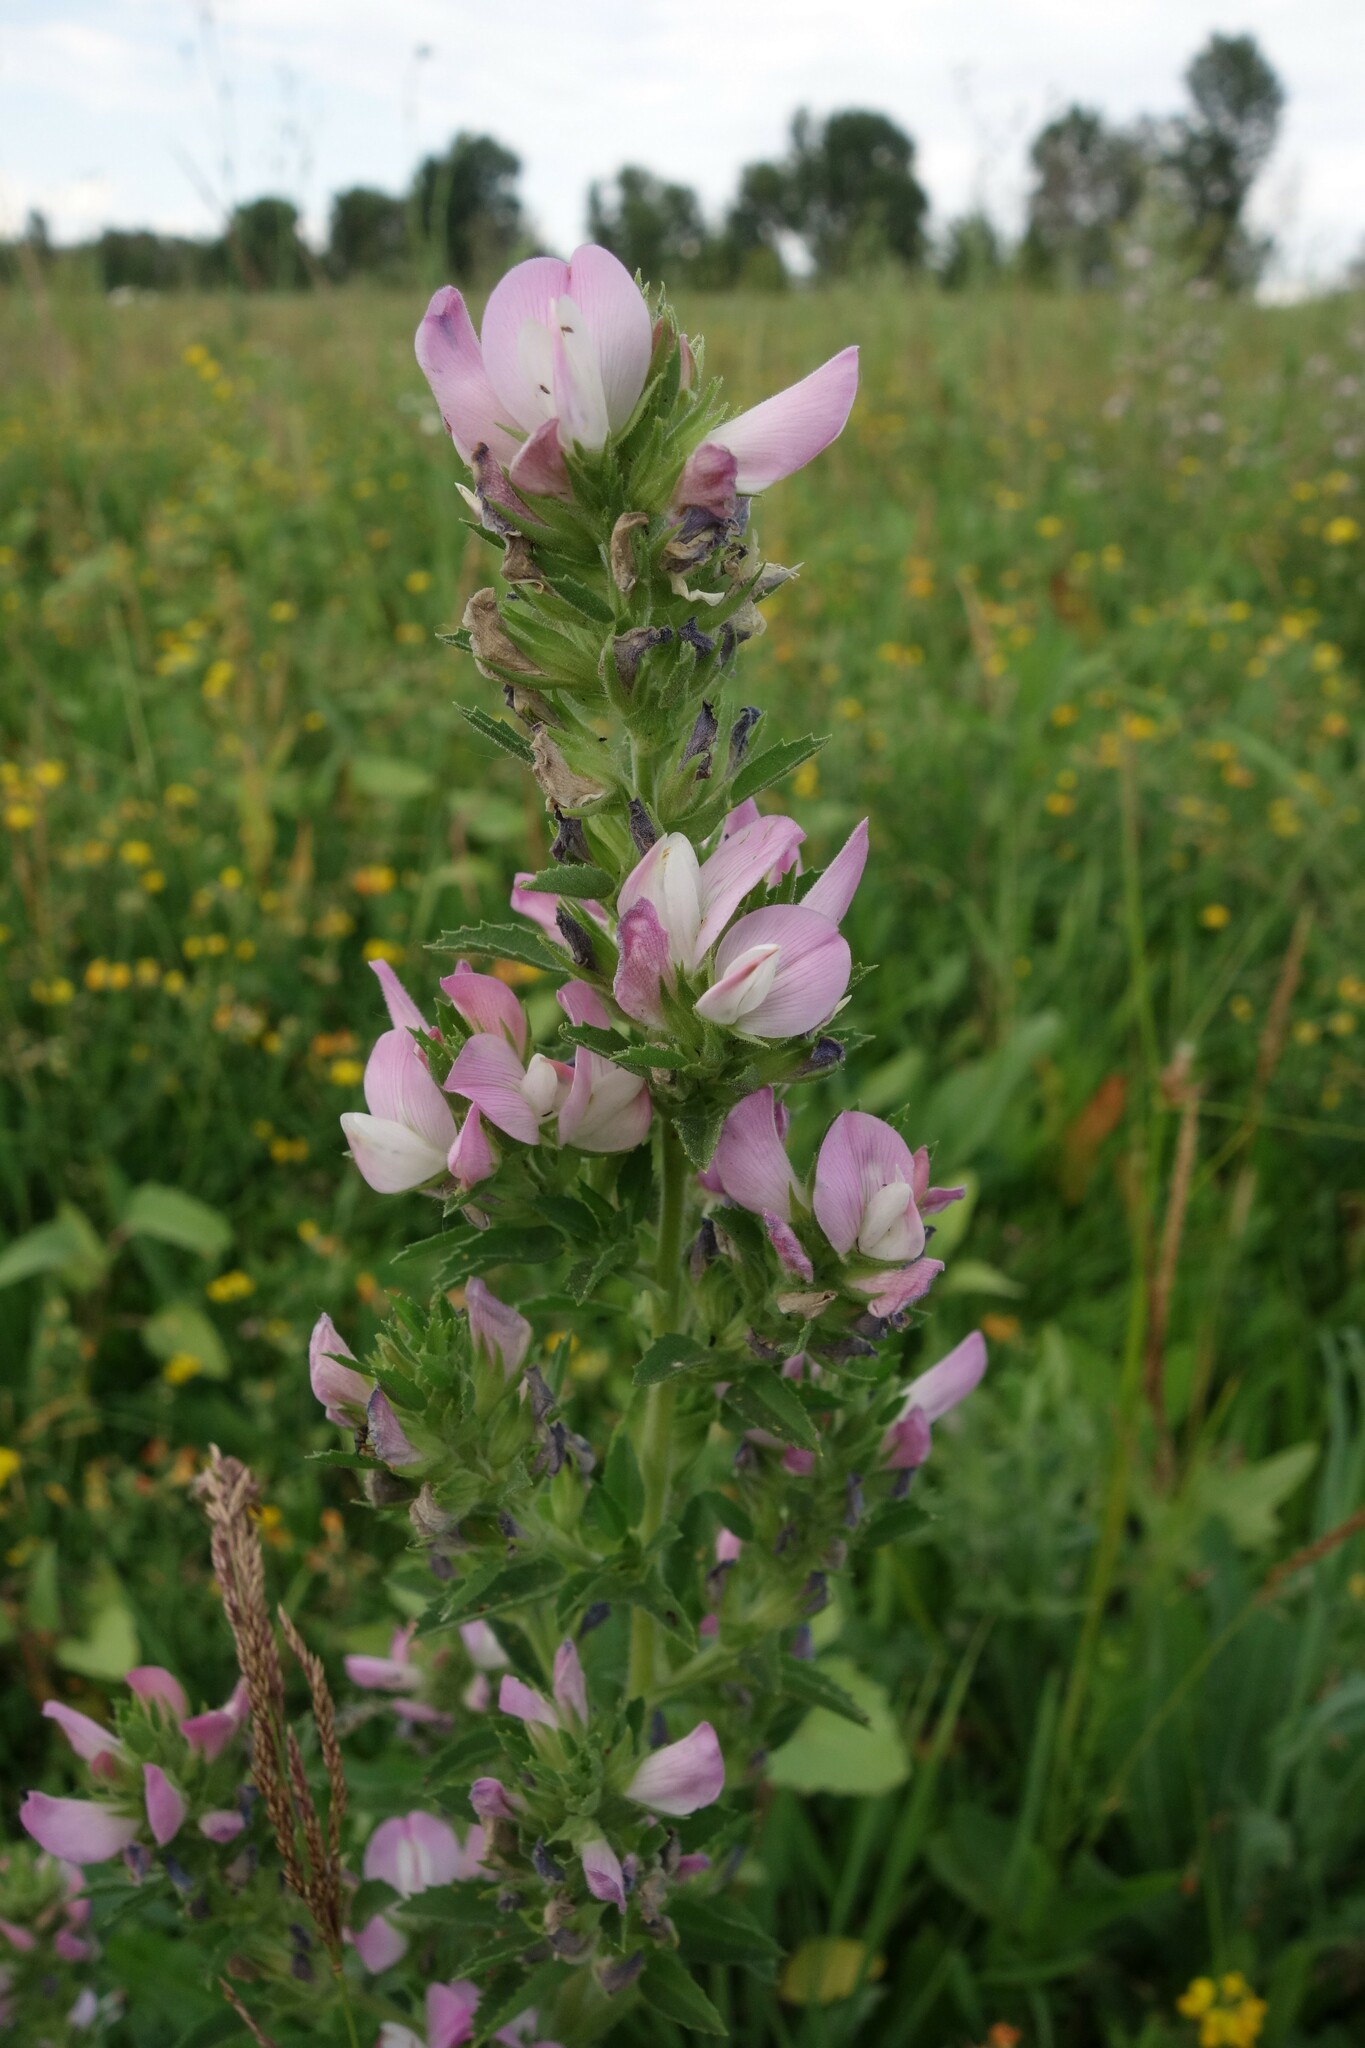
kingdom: Plantae
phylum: Tracheophyta
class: Magnoliopsida
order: Fabales
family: Fabaceae
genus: Ononis
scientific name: Ononis arvensis
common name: Field restharrow
